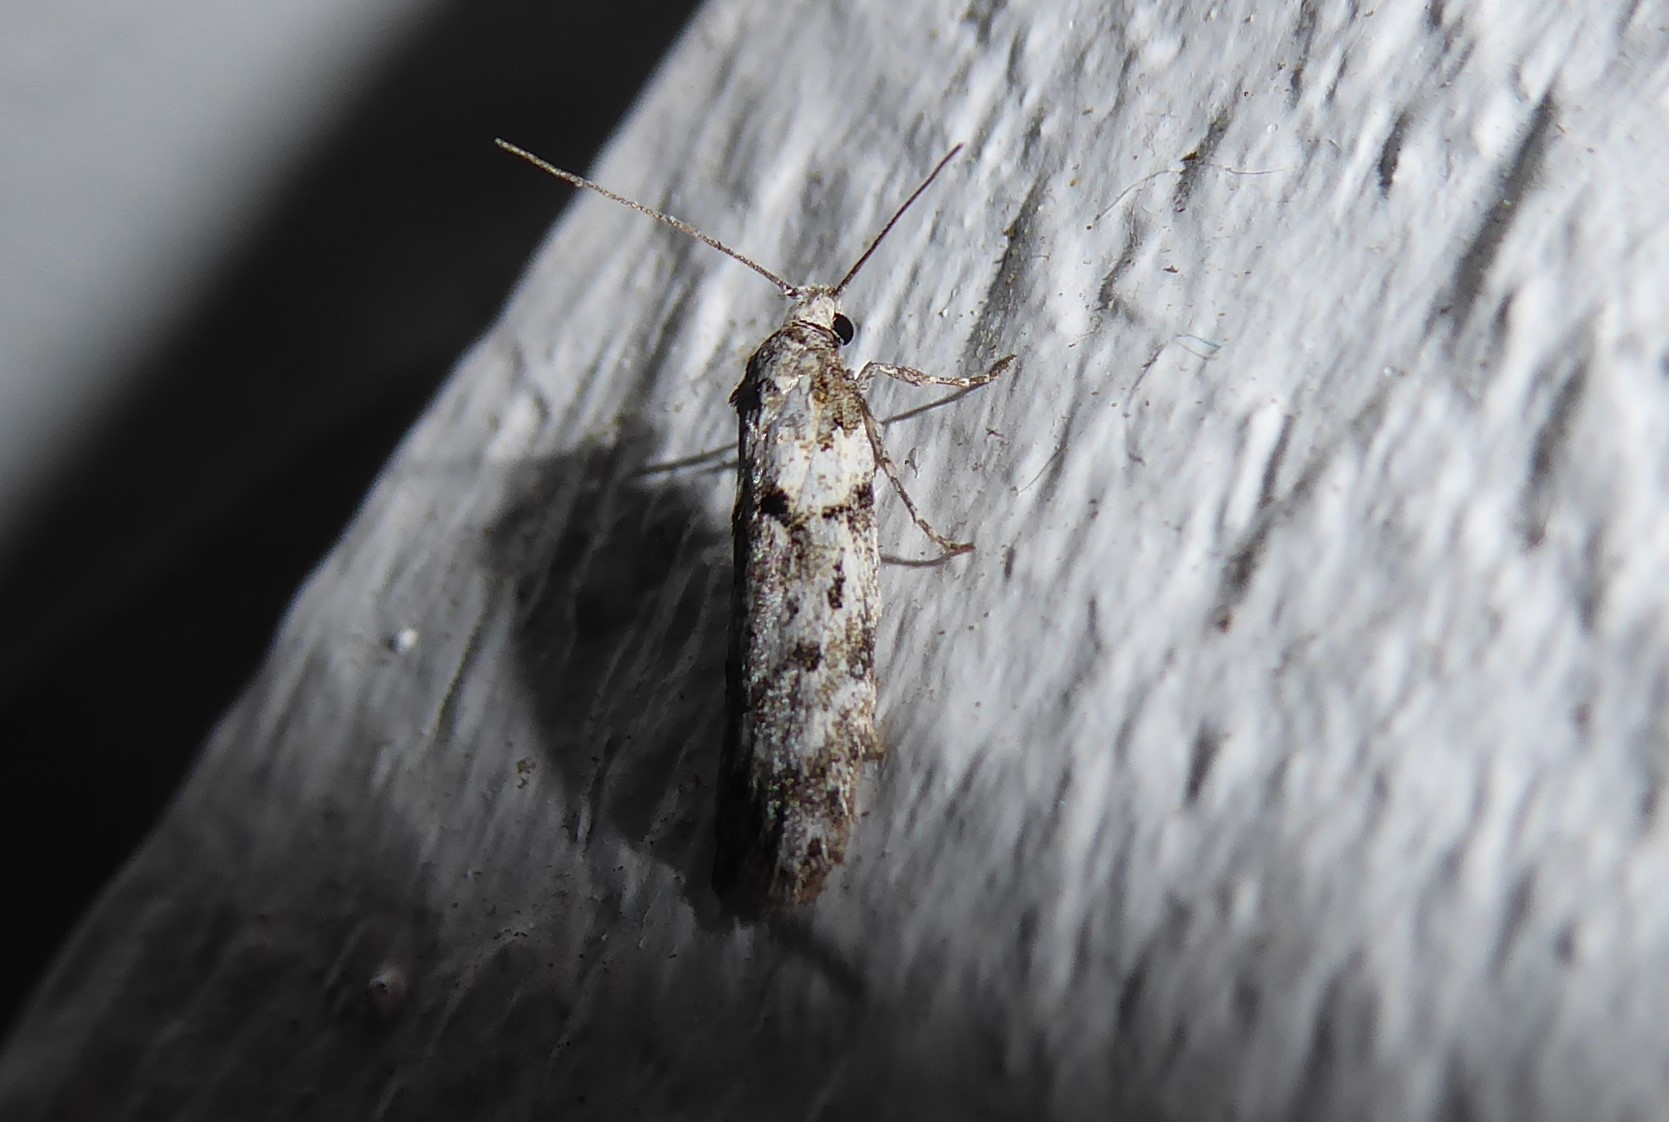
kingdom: Animalia
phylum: Arthropoda
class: Insecta
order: Lepidoptera
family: Oecophoridae
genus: Izatha
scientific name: Izatha convulsella
